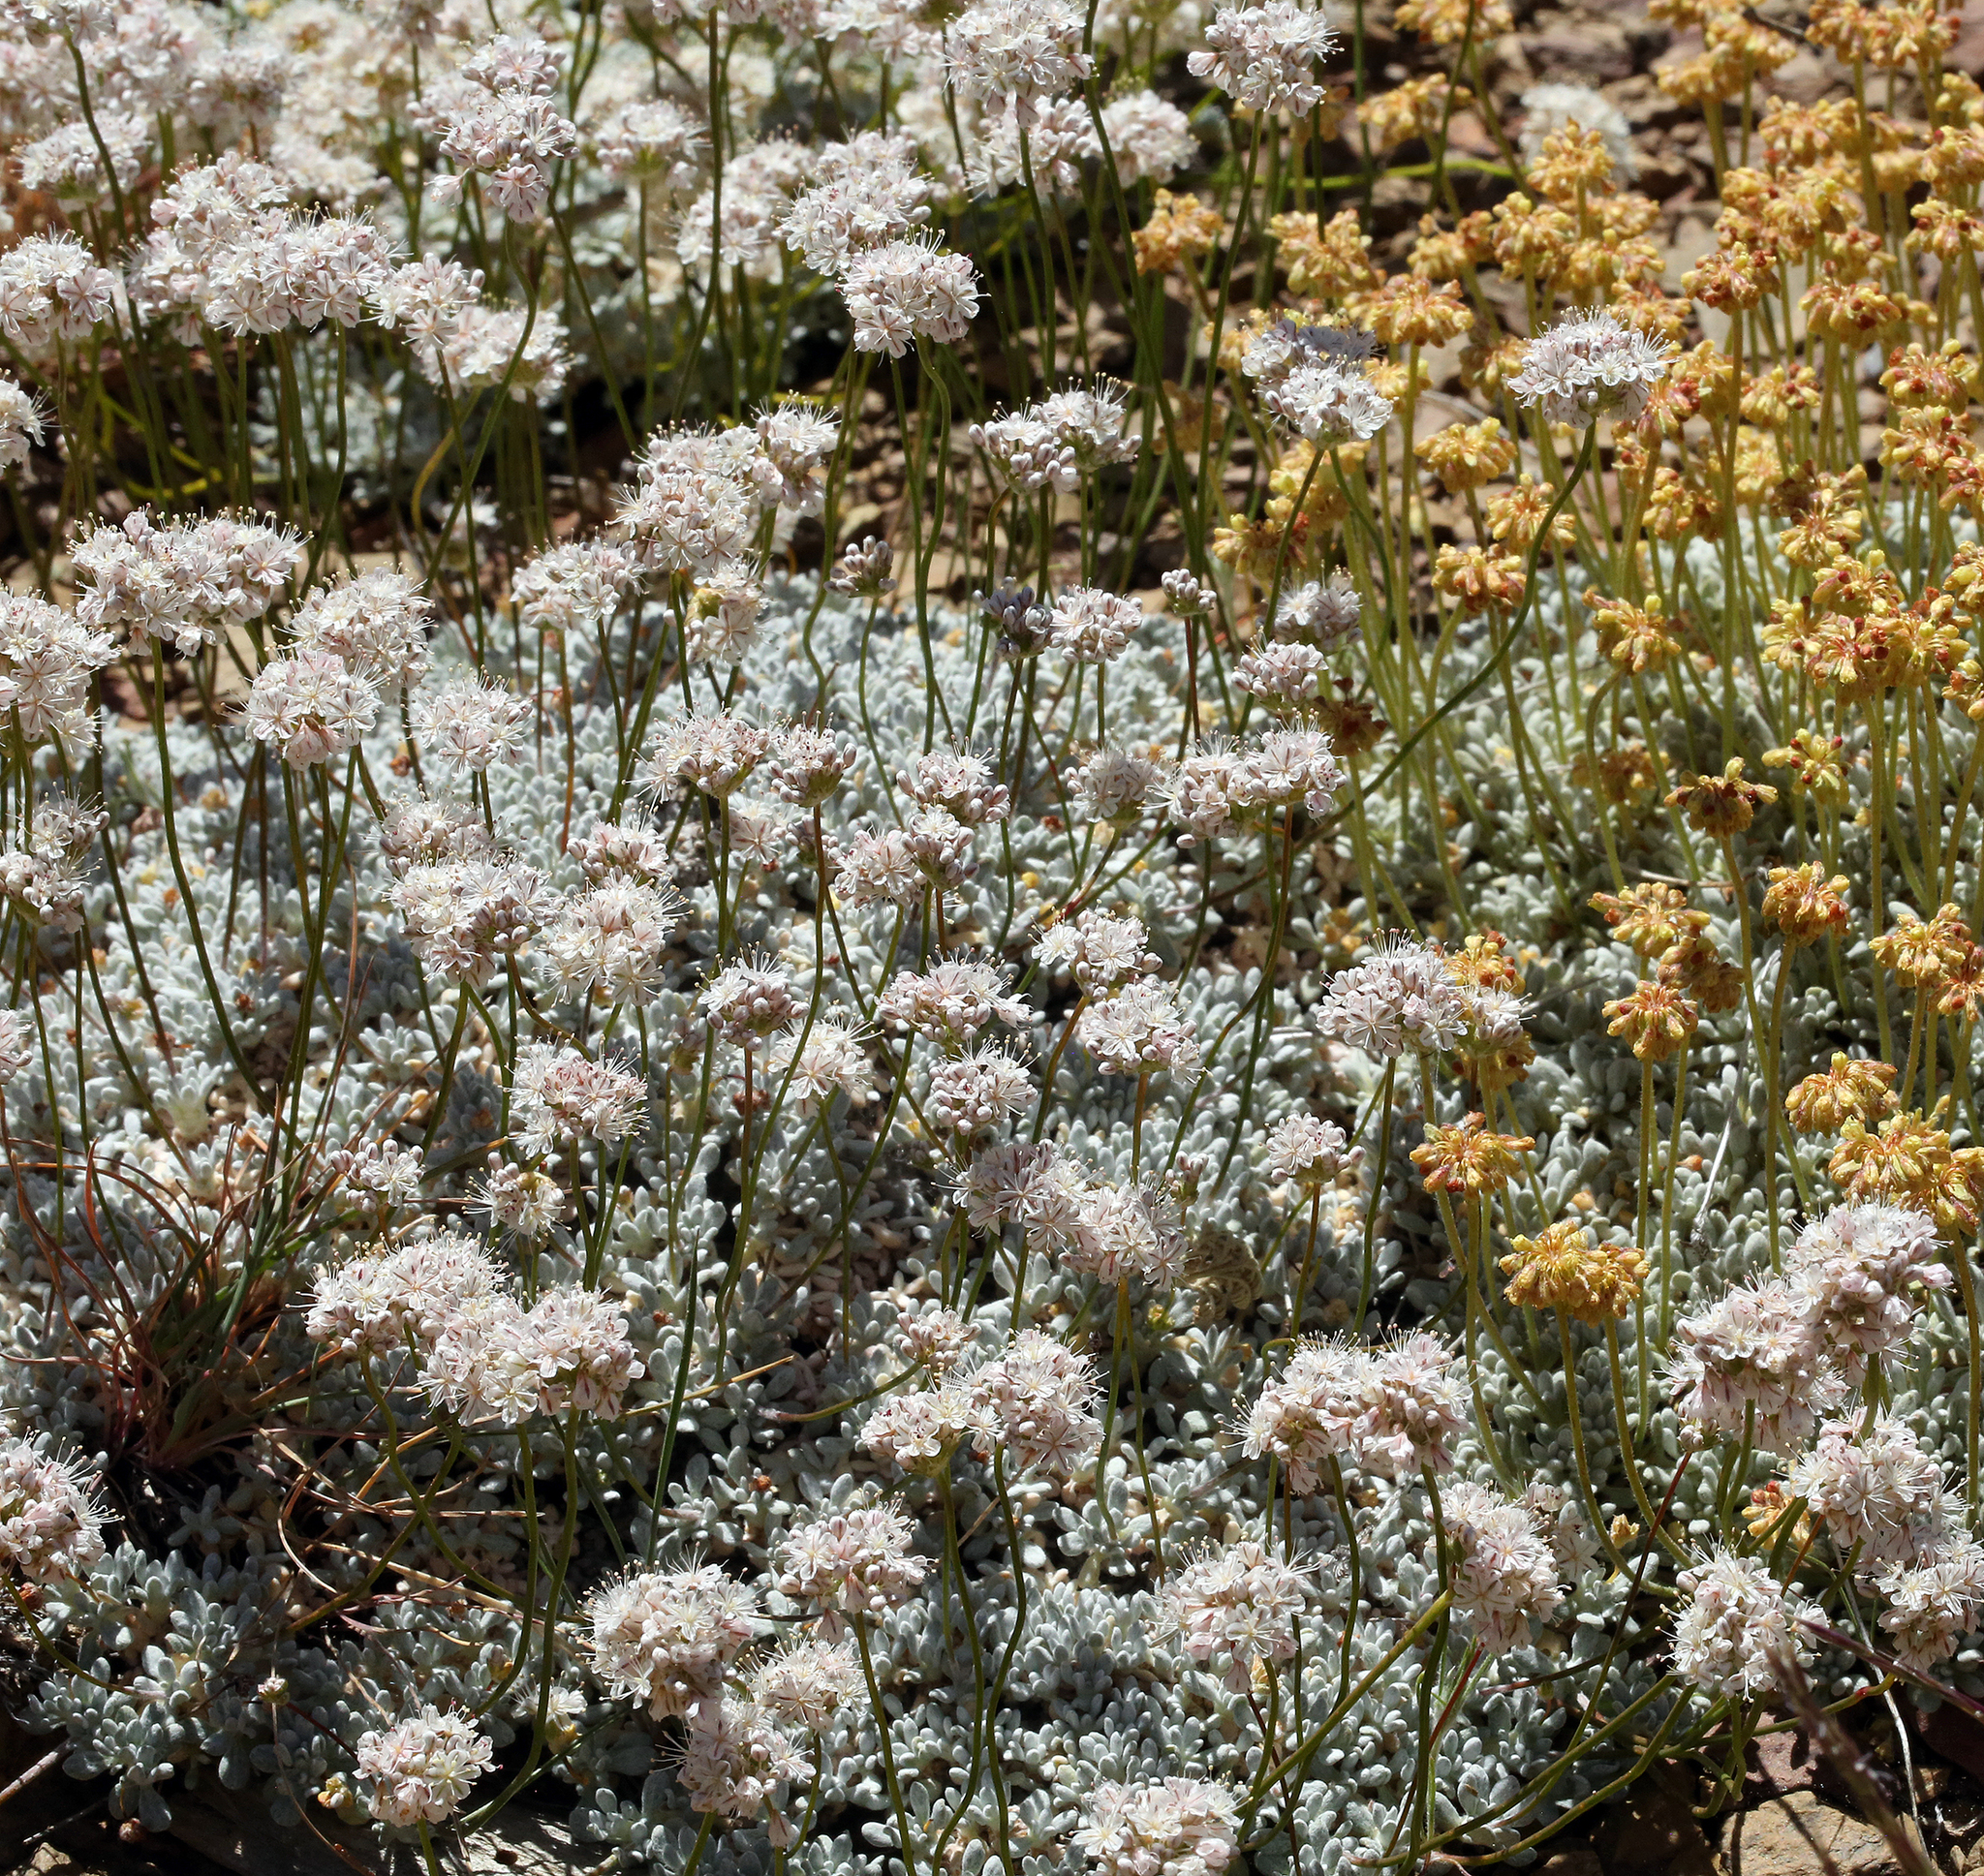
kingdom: Plantae
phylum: Tracheophyta
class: Magnoliopsida
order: Caryophyllales
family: Polygonaceae
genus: Eriogonum
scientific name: Eriogonum kennedyi
